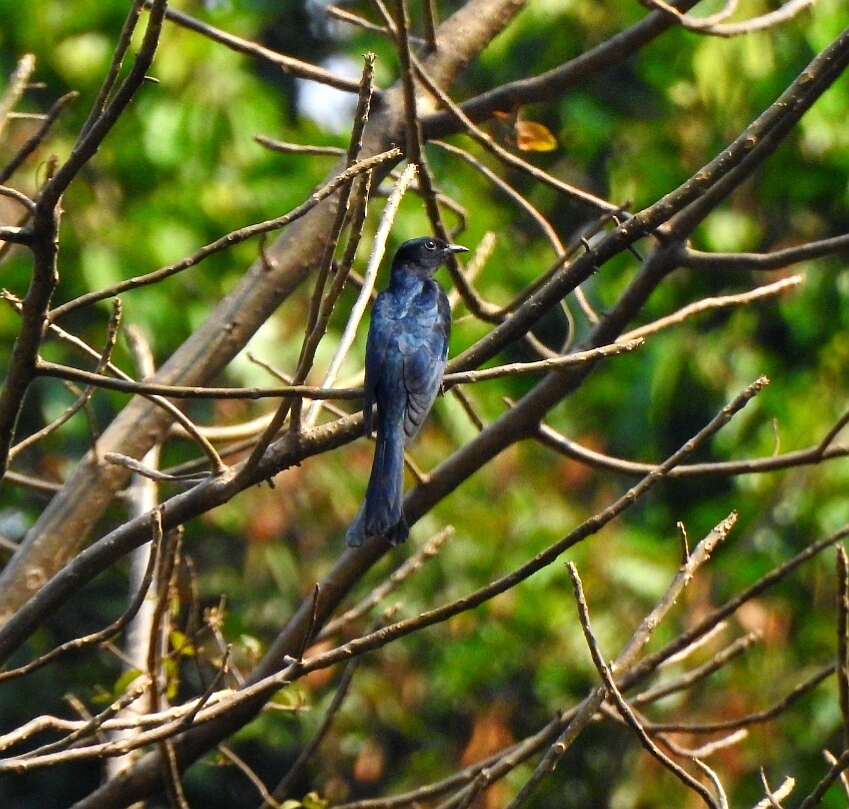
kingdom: Animalia
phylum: Chordata
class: Aves
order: Cuculiformes
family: Cuculidae
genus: Surniculus
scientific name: Surniculus lugubris
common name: Square-tailed drongo-cuckoo
